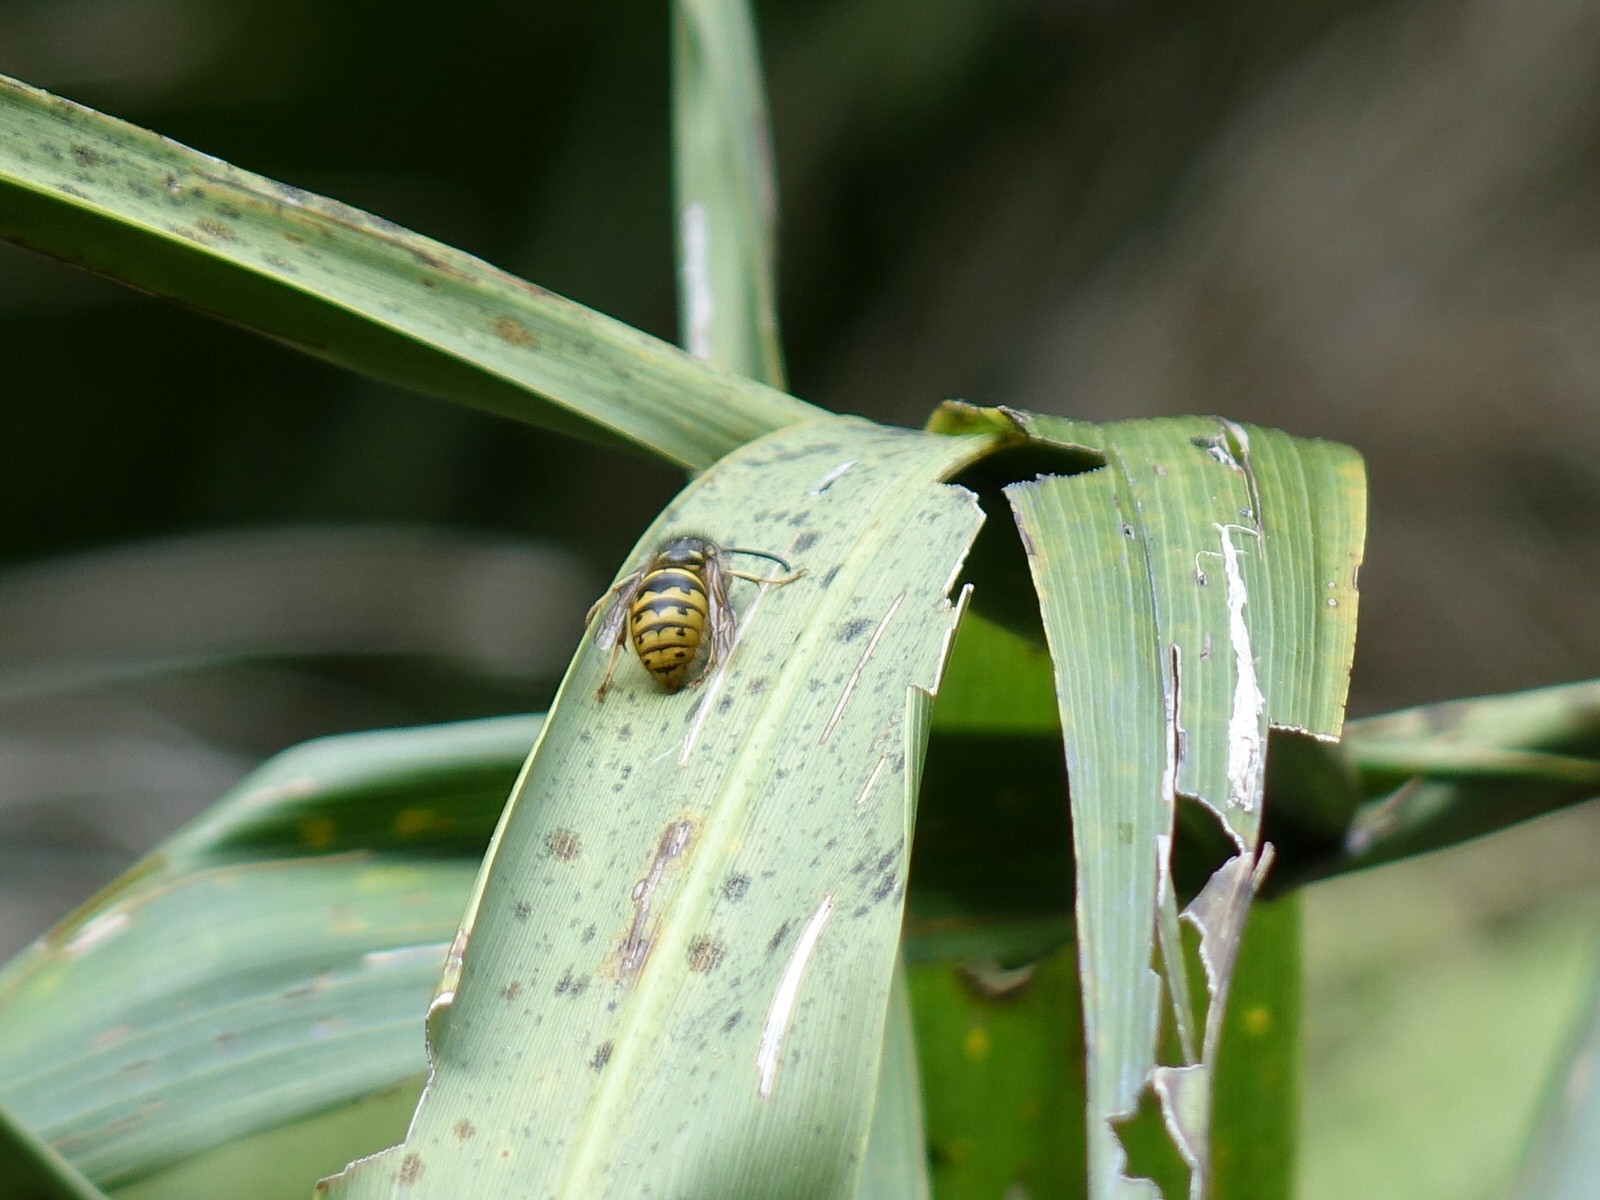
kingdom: Animalia
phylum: Arthropoda
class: Insecta
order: Hymenoptera
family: Vespidae
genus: Vespula
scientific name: Vespula vulgaris
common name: Common wasp
